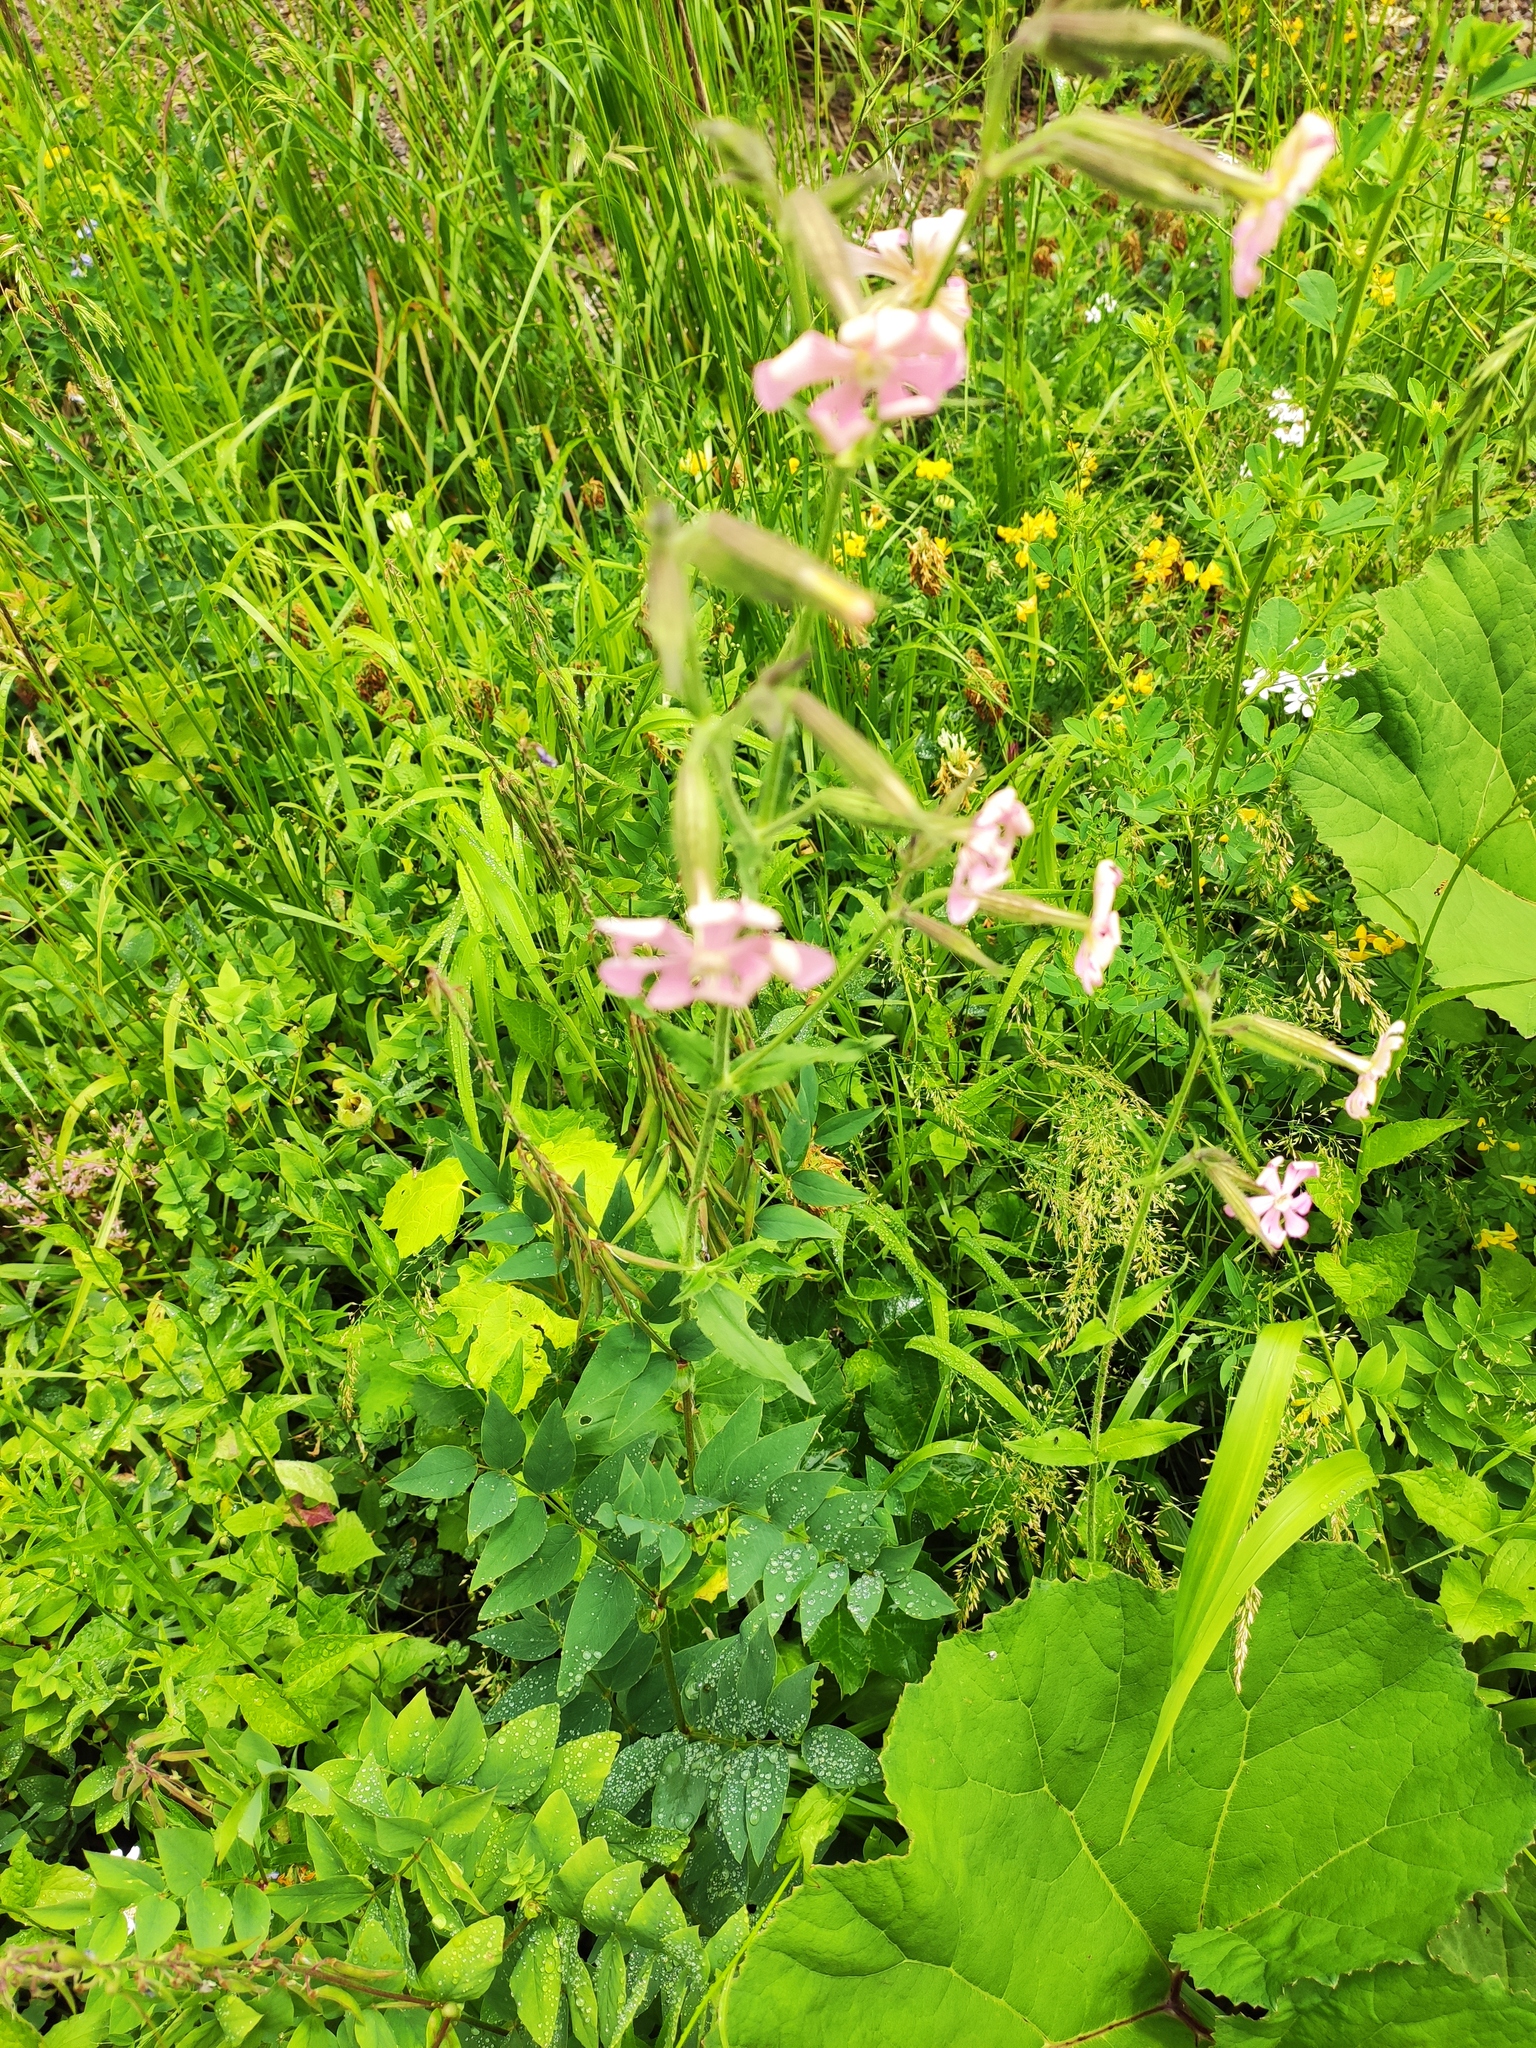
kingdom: Plantae
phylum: Tracheophyta
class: Magnoliopsida
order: Caryophyllales
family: Caryophyllaceae
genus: Silene
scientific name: Silene noctiflora
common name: Night-flowering catchfly
